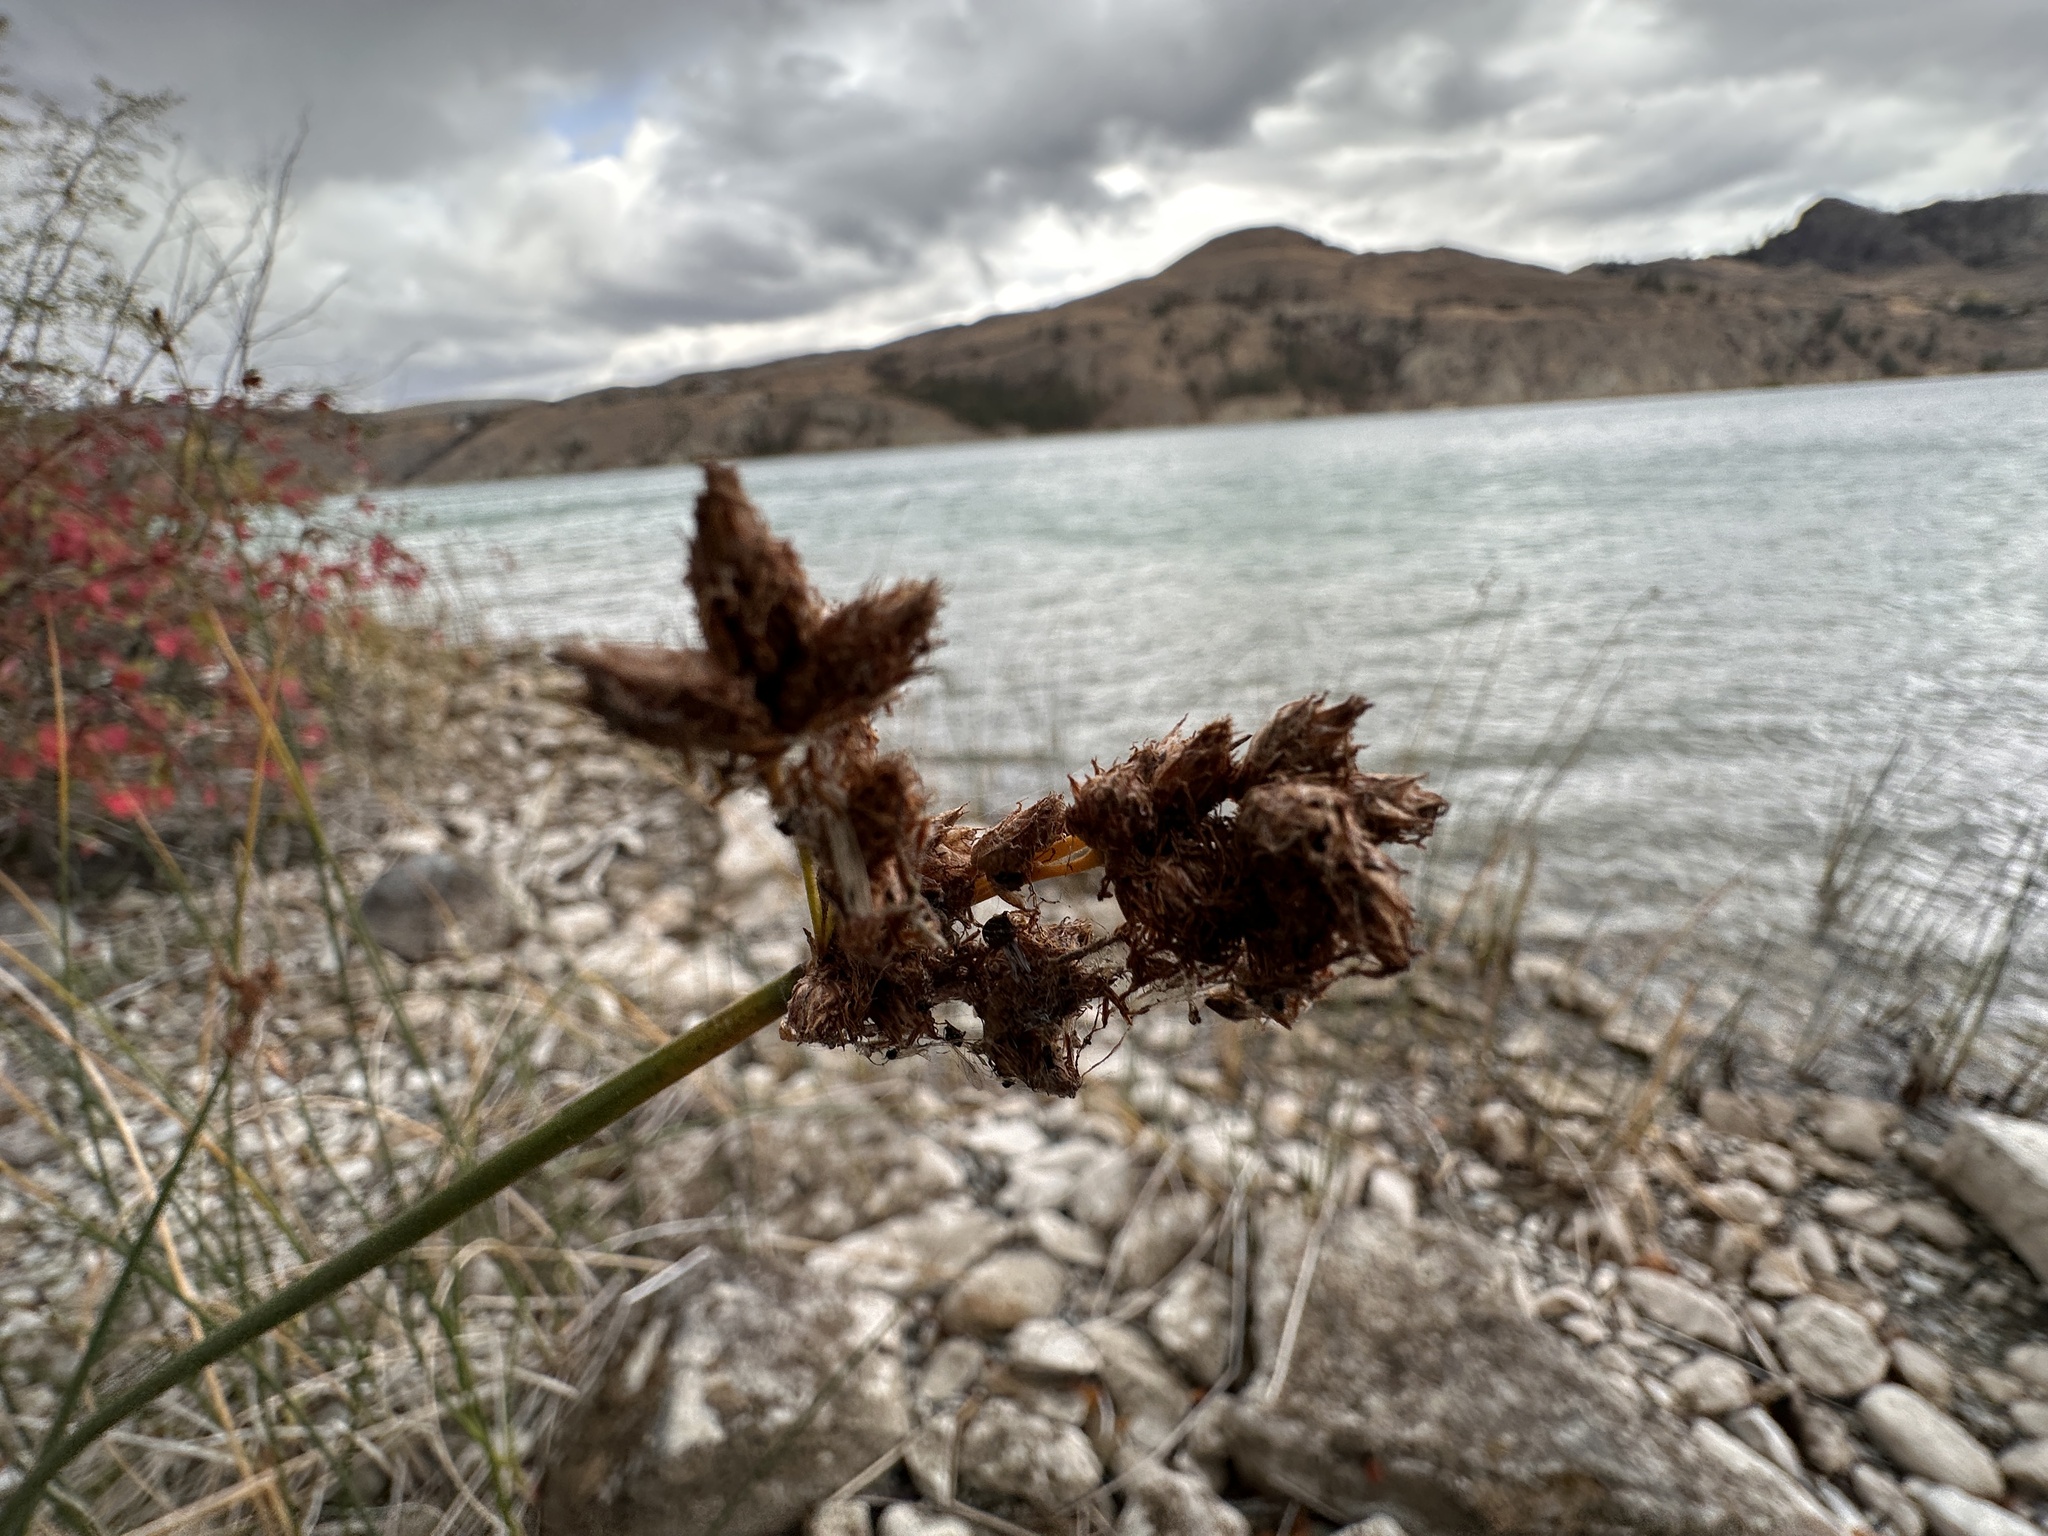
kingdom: Plantae
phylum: Tracheophyta
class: Liliopsida
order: Poales
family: Cyperaceae
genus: Schoenoplectus
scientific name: Schoenoplectus acutus
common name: Hardstem bulrush
